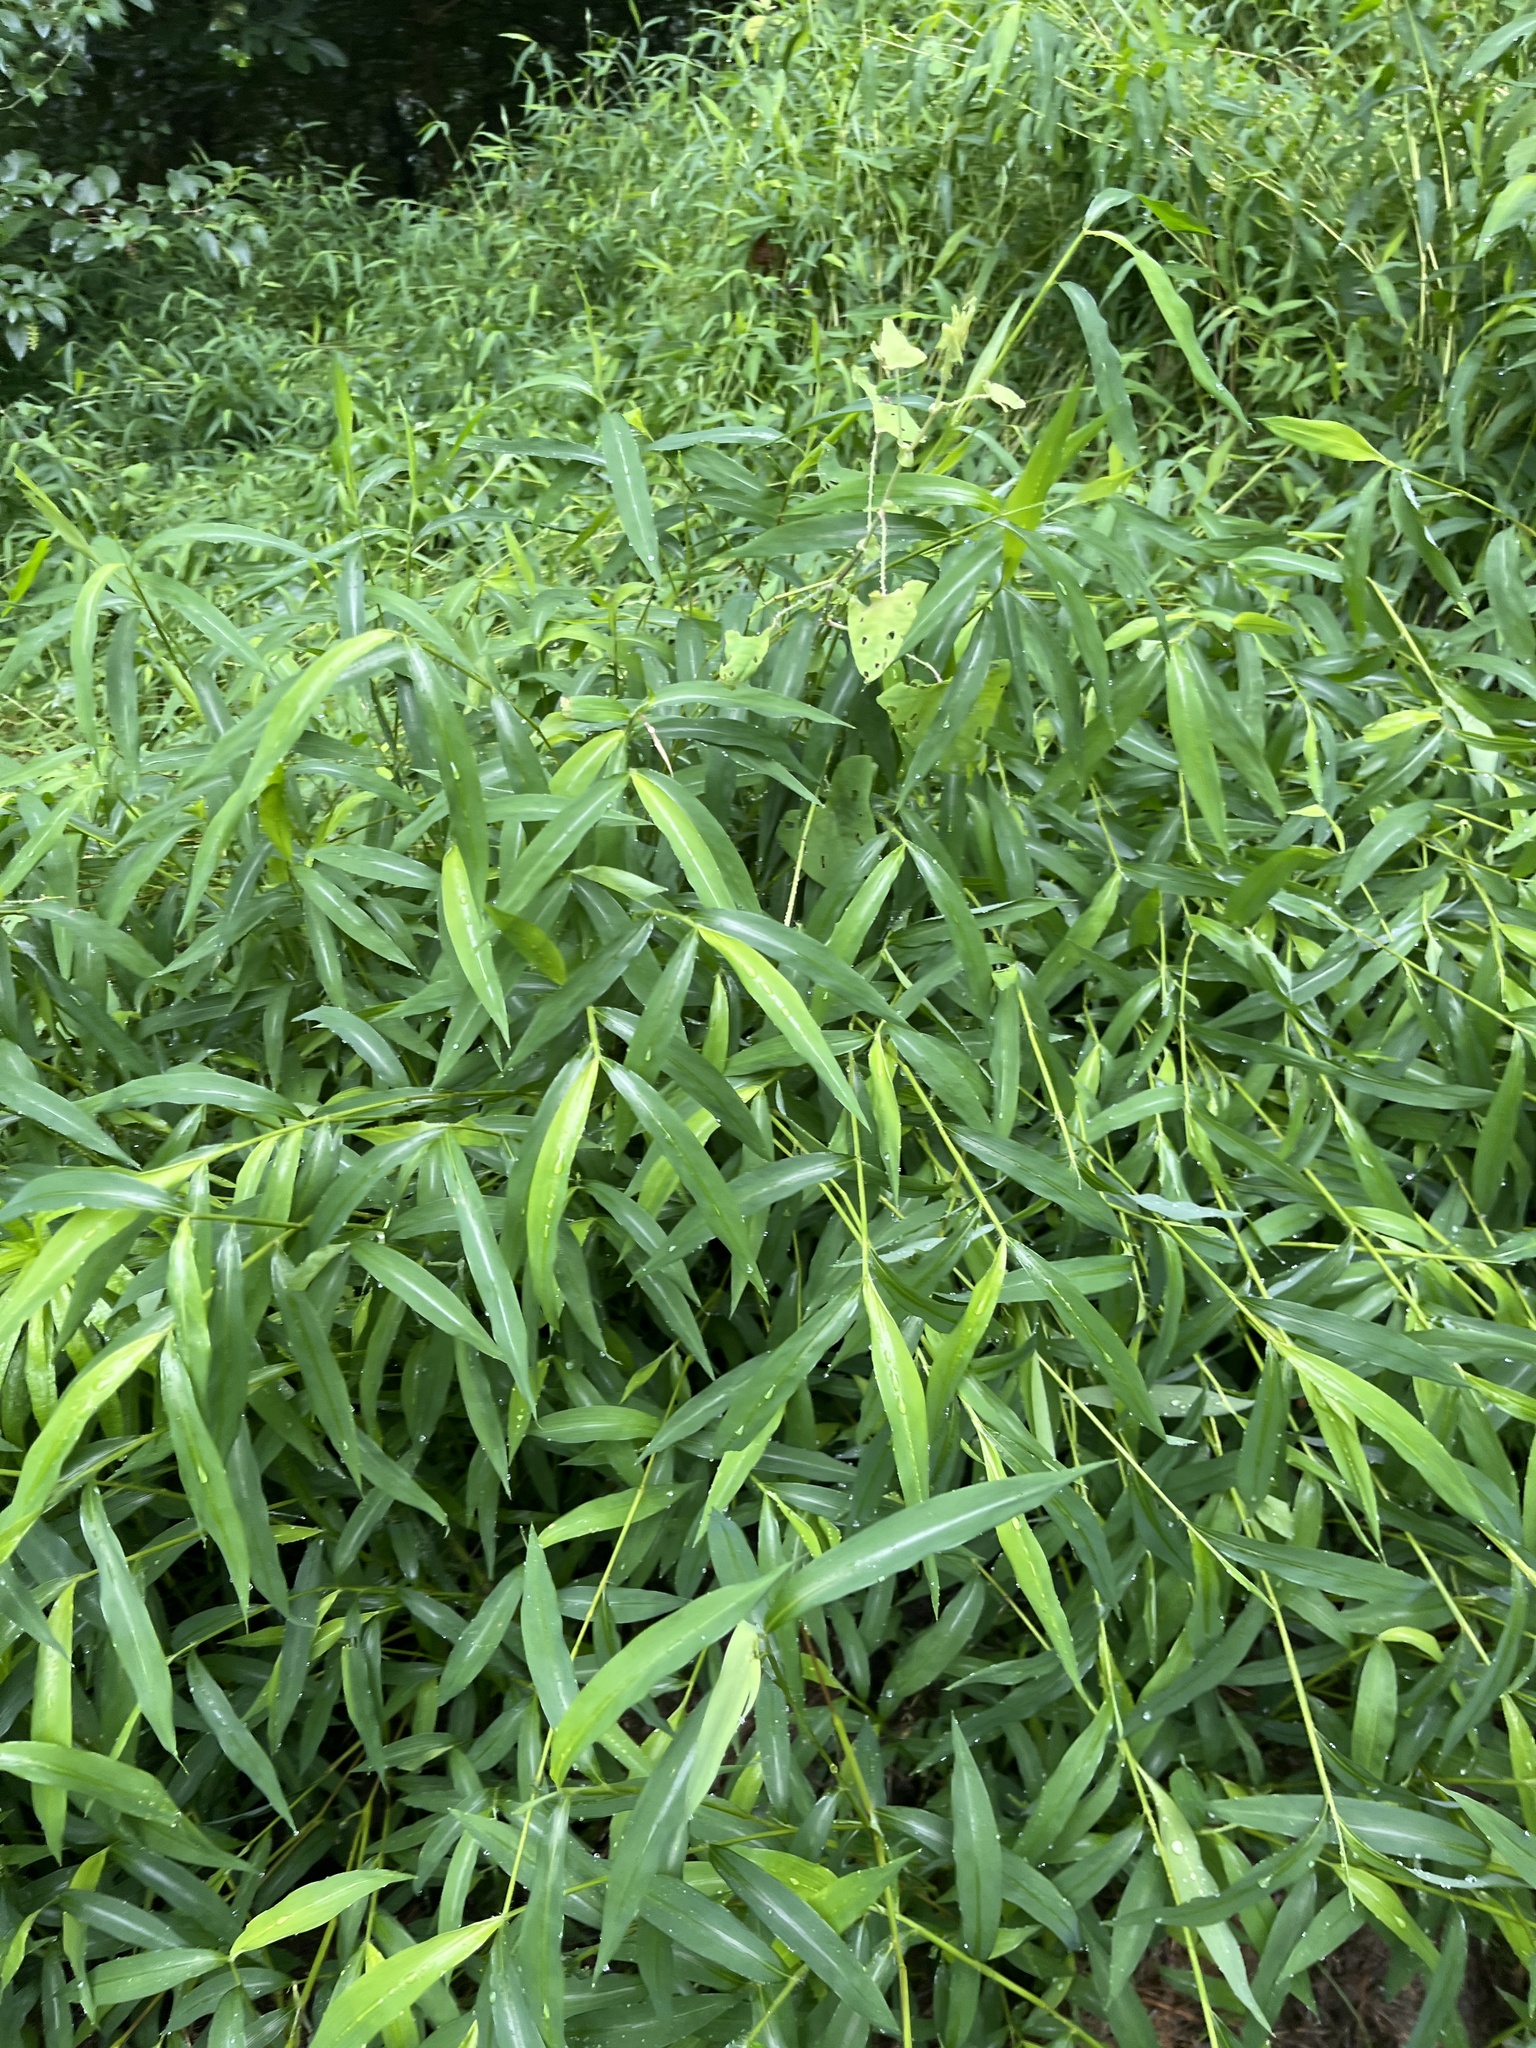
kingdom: Plantae
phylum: Tracheophyta
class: Liliopsida
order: Poales
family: Poaceae
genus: Microstegium
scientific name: Microstegium vimineum
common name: Japanese stiltgrass
